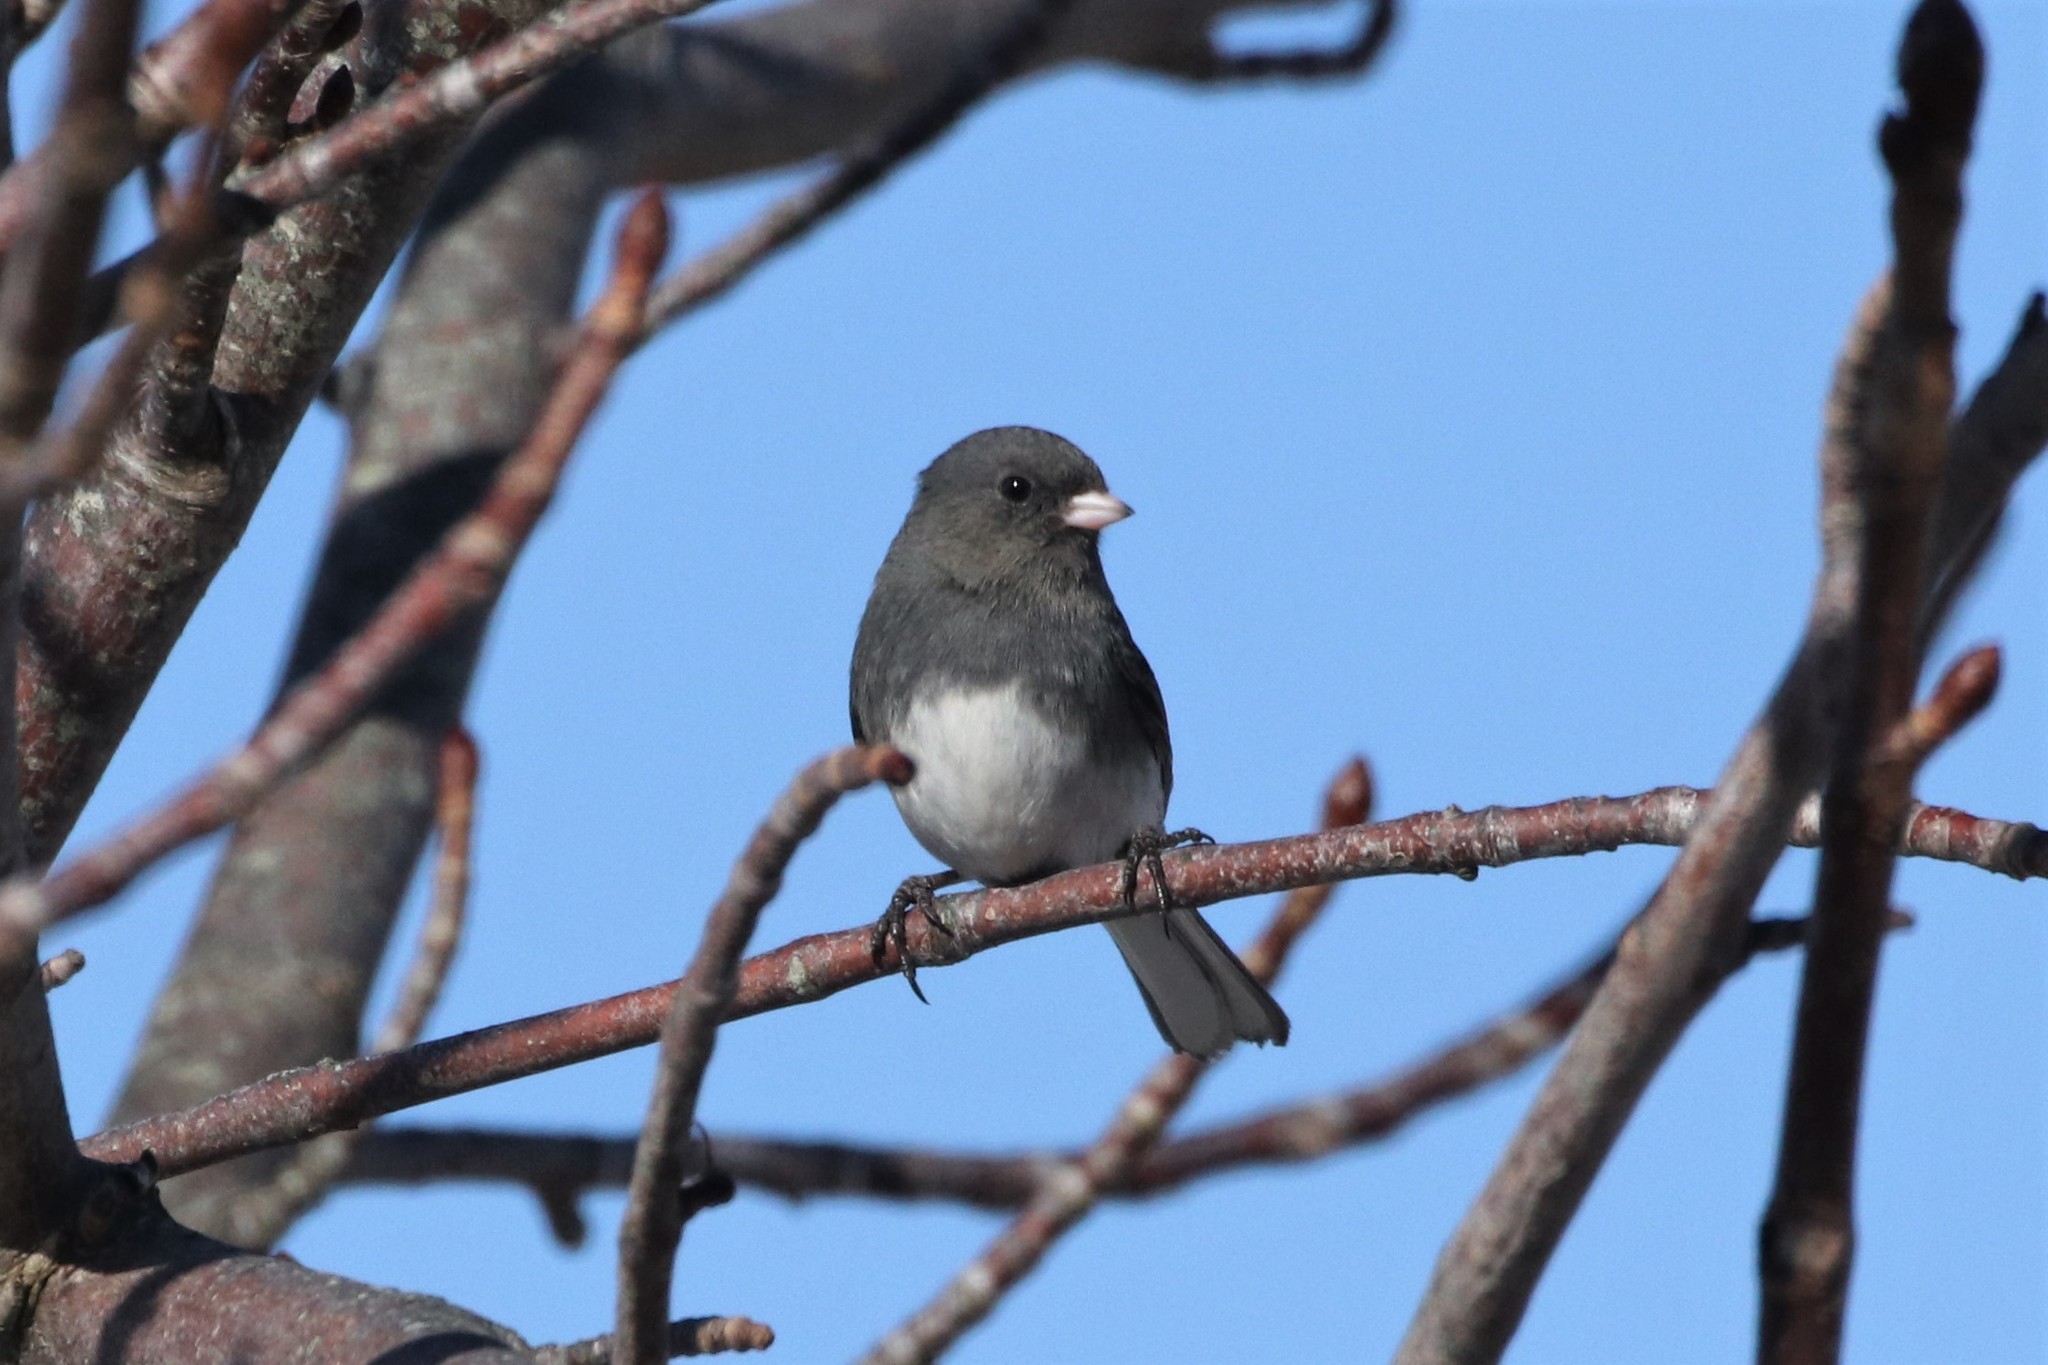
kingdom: Animalia
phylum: Chordata
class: Aves
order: Passeriformes
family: Passerellidae
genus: Junco
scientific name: Junco hyemalis
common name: Dark-eyed junco
